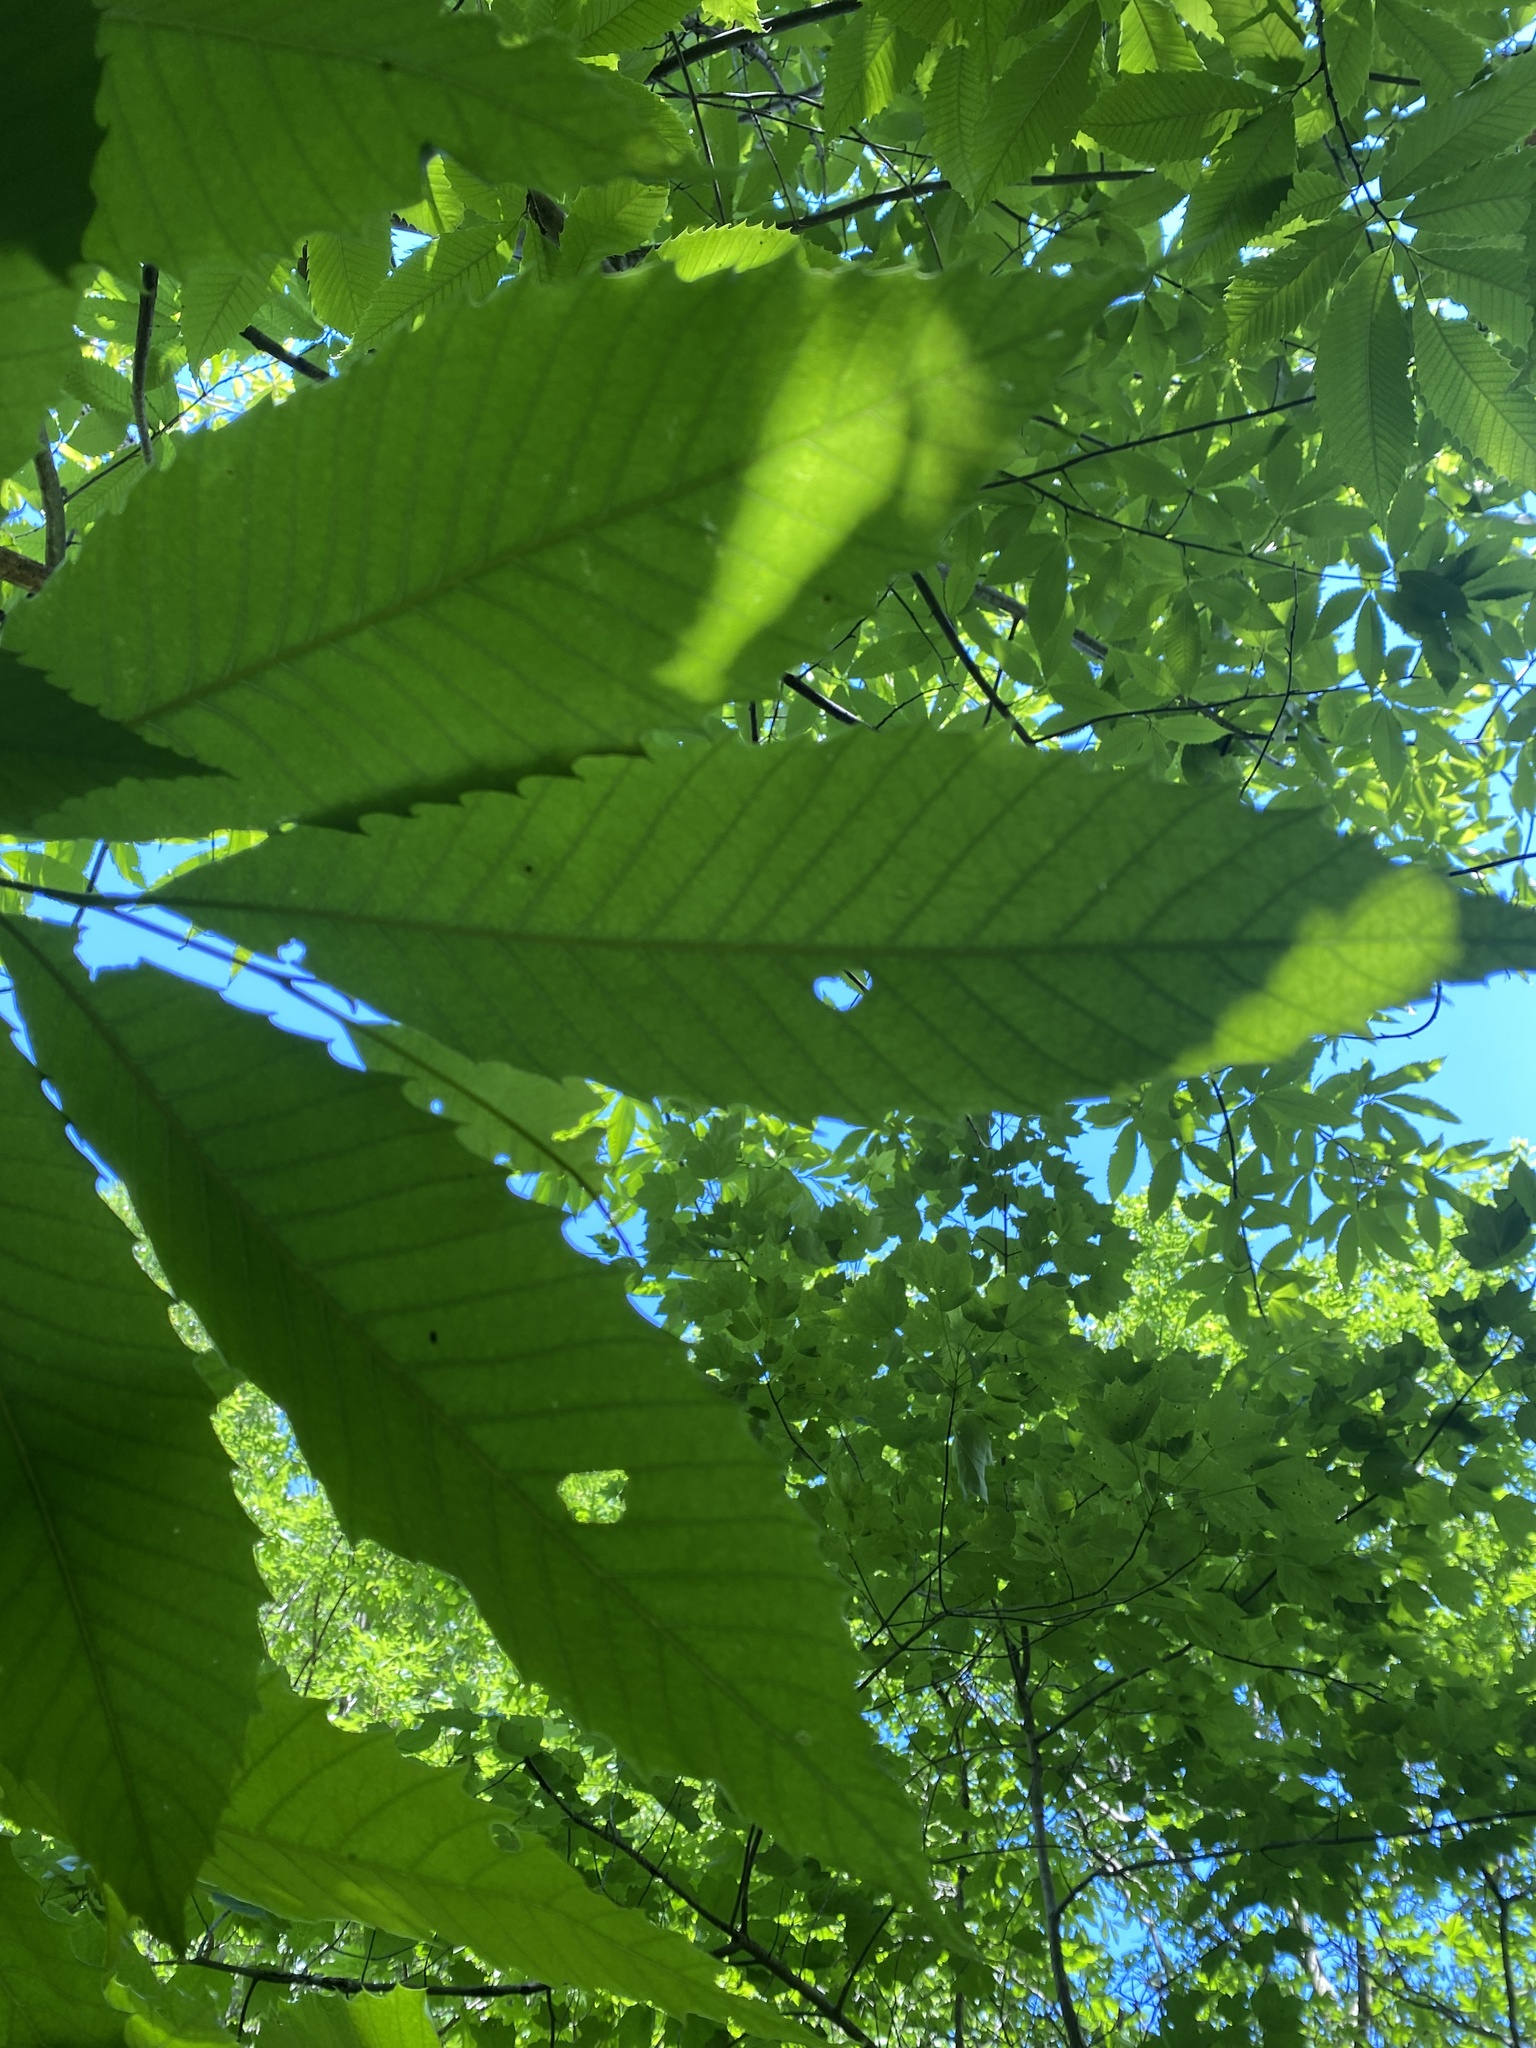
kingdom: Plantae
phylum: Tracheophyta
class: Magnoliopsida
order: Fagales
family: Fagaceae
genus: Castanea
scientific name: Castanea dentata
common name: American chestnut
